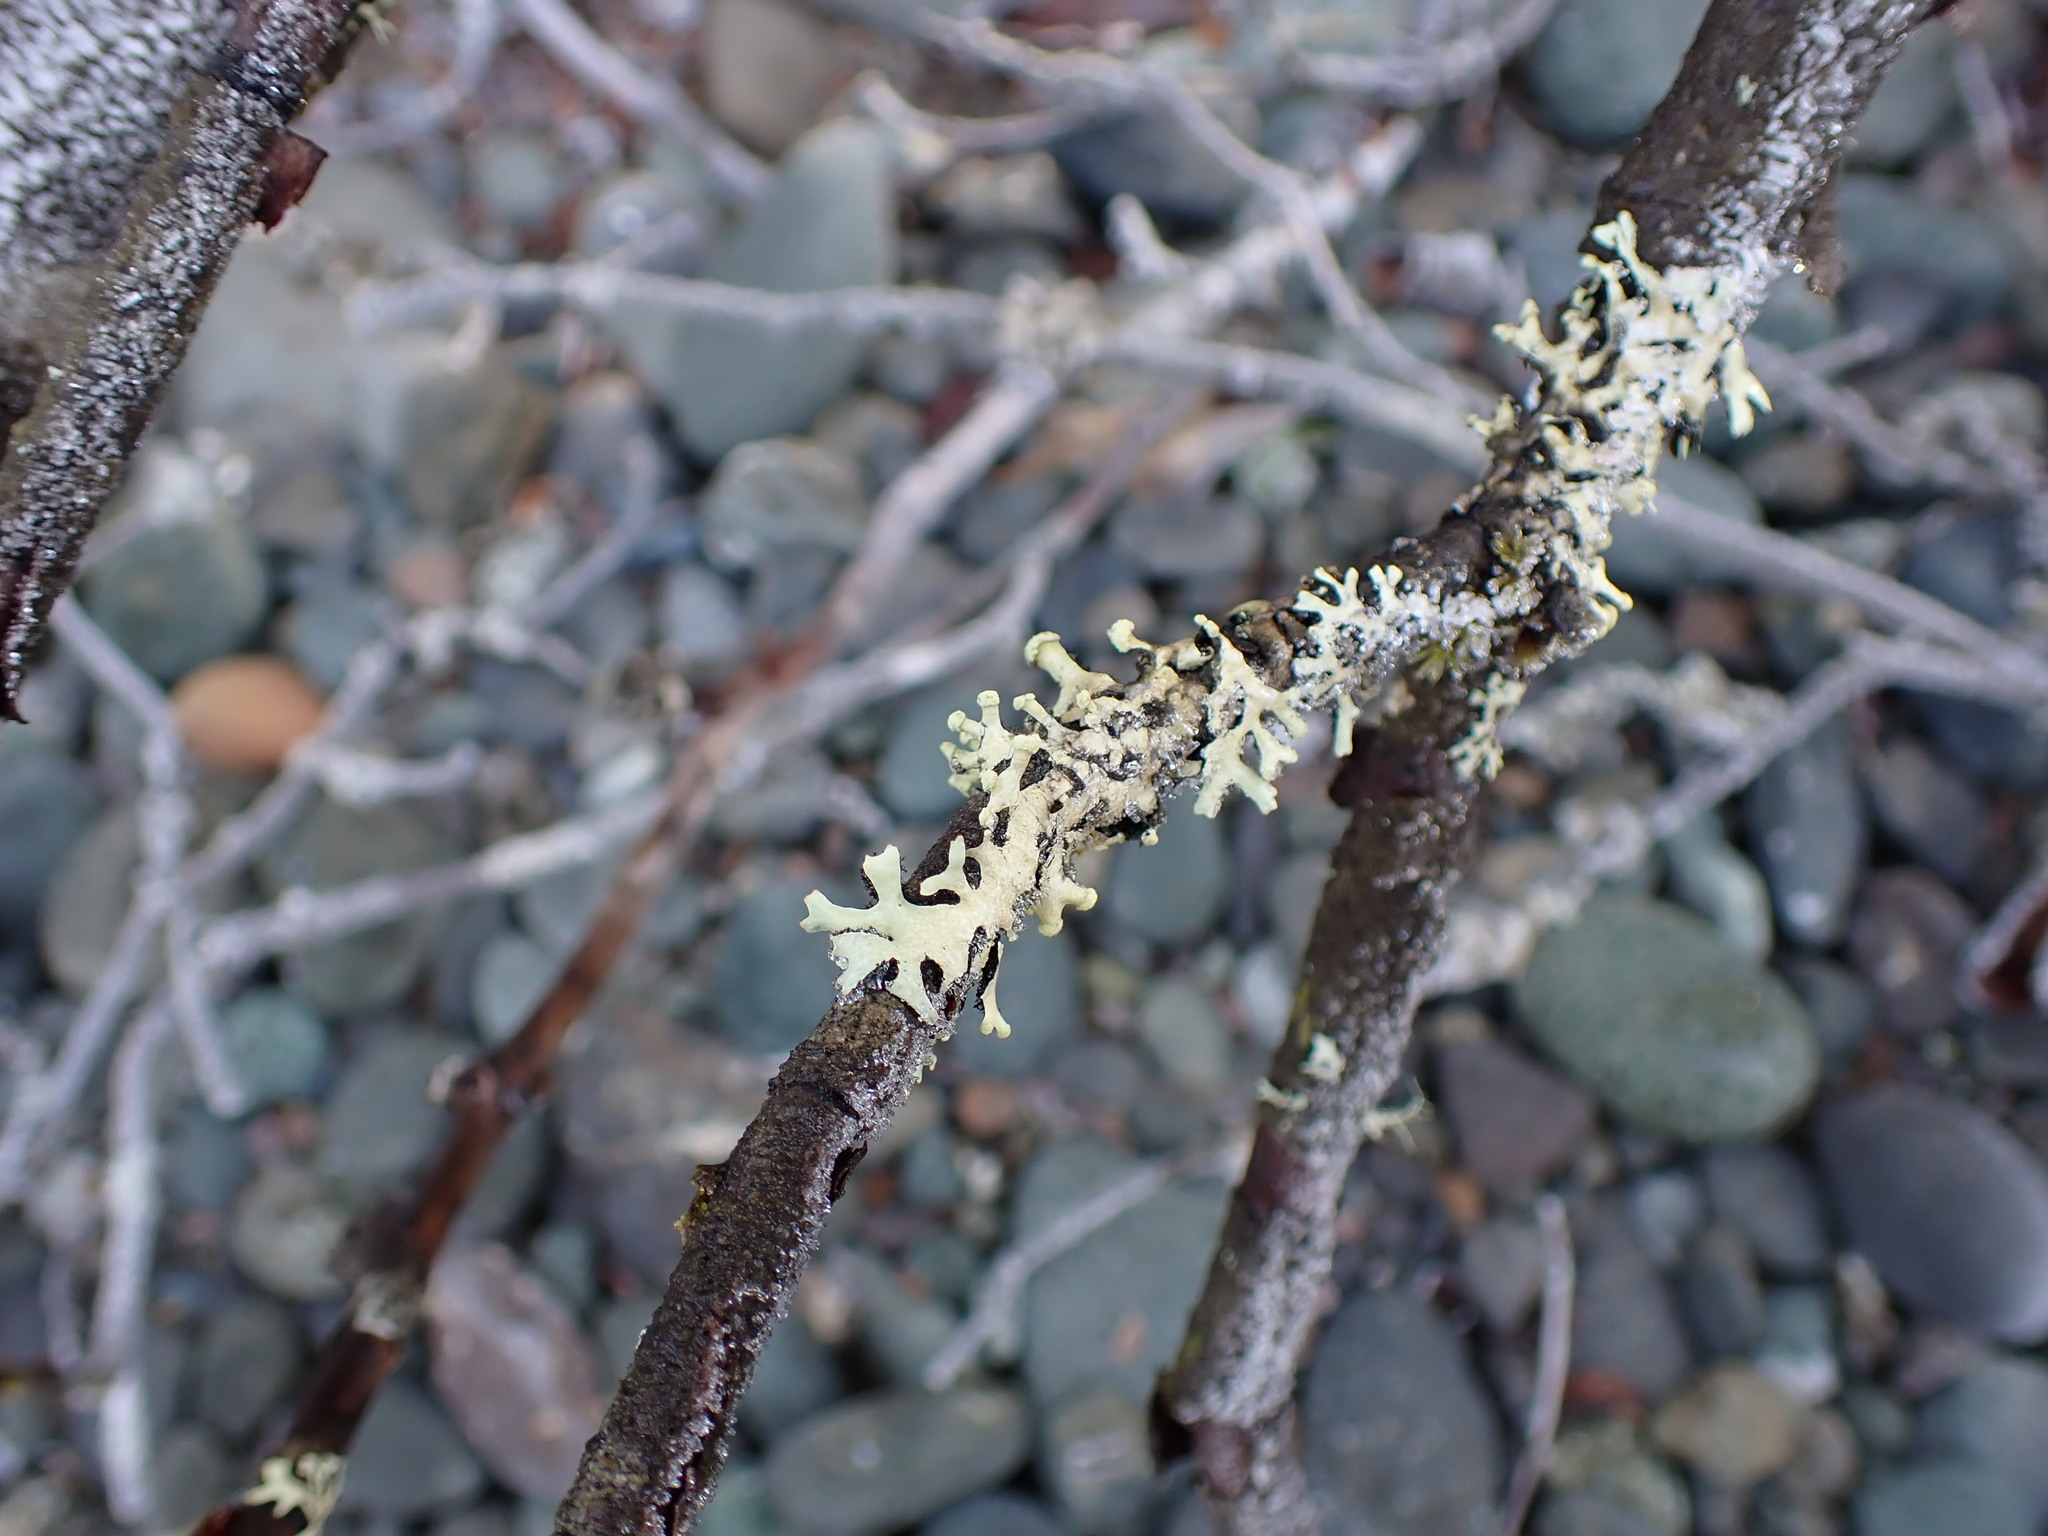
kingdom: Fungi
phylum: Ascomycota
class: Lecanoromycetes
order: Lecanorales
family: Parmeliaceae
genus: Hypotrachyna
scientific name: Hypotrachyna sinuosa
